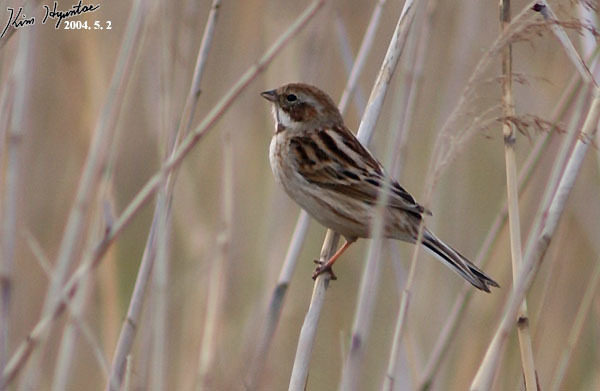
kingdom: Animalia
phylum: Chordata
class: Aves
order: Passeriformes
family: Emberizidae
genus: Emberiza
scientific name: Emberiza pallasi
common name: Pallas's reed bunting
